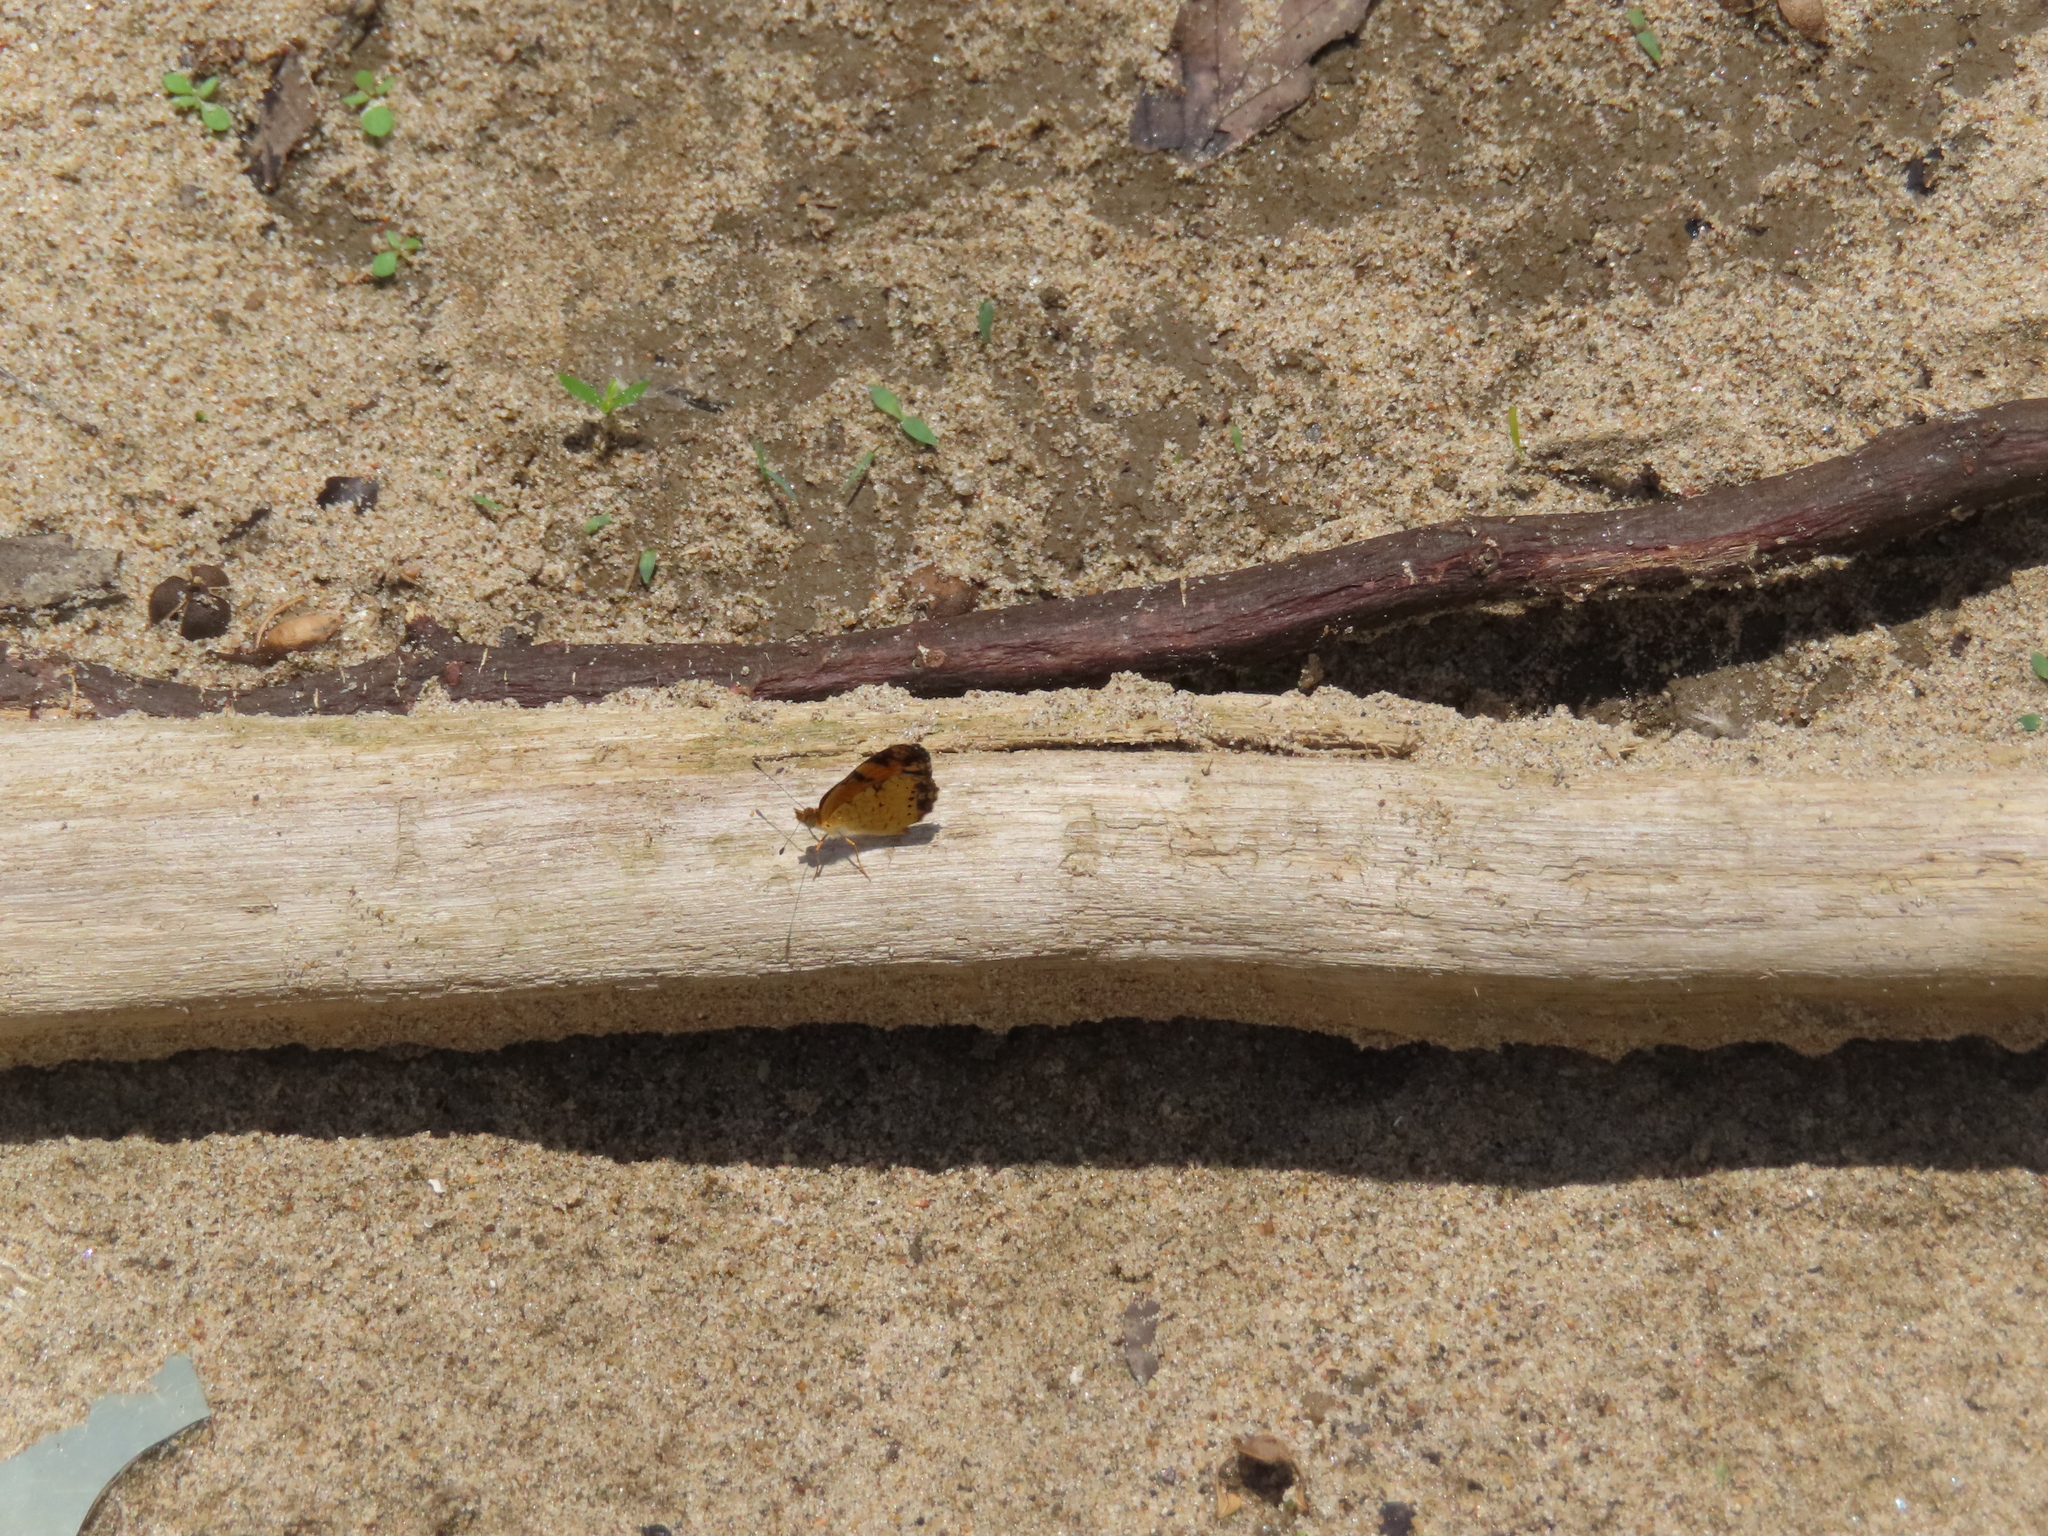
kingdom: Animalia
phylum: Arthropoda
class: Insecta
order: Lepidoptera
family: Nymphalidae
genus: Phyciodes
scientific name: Phyciodes tharos
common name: Pearl crescent
